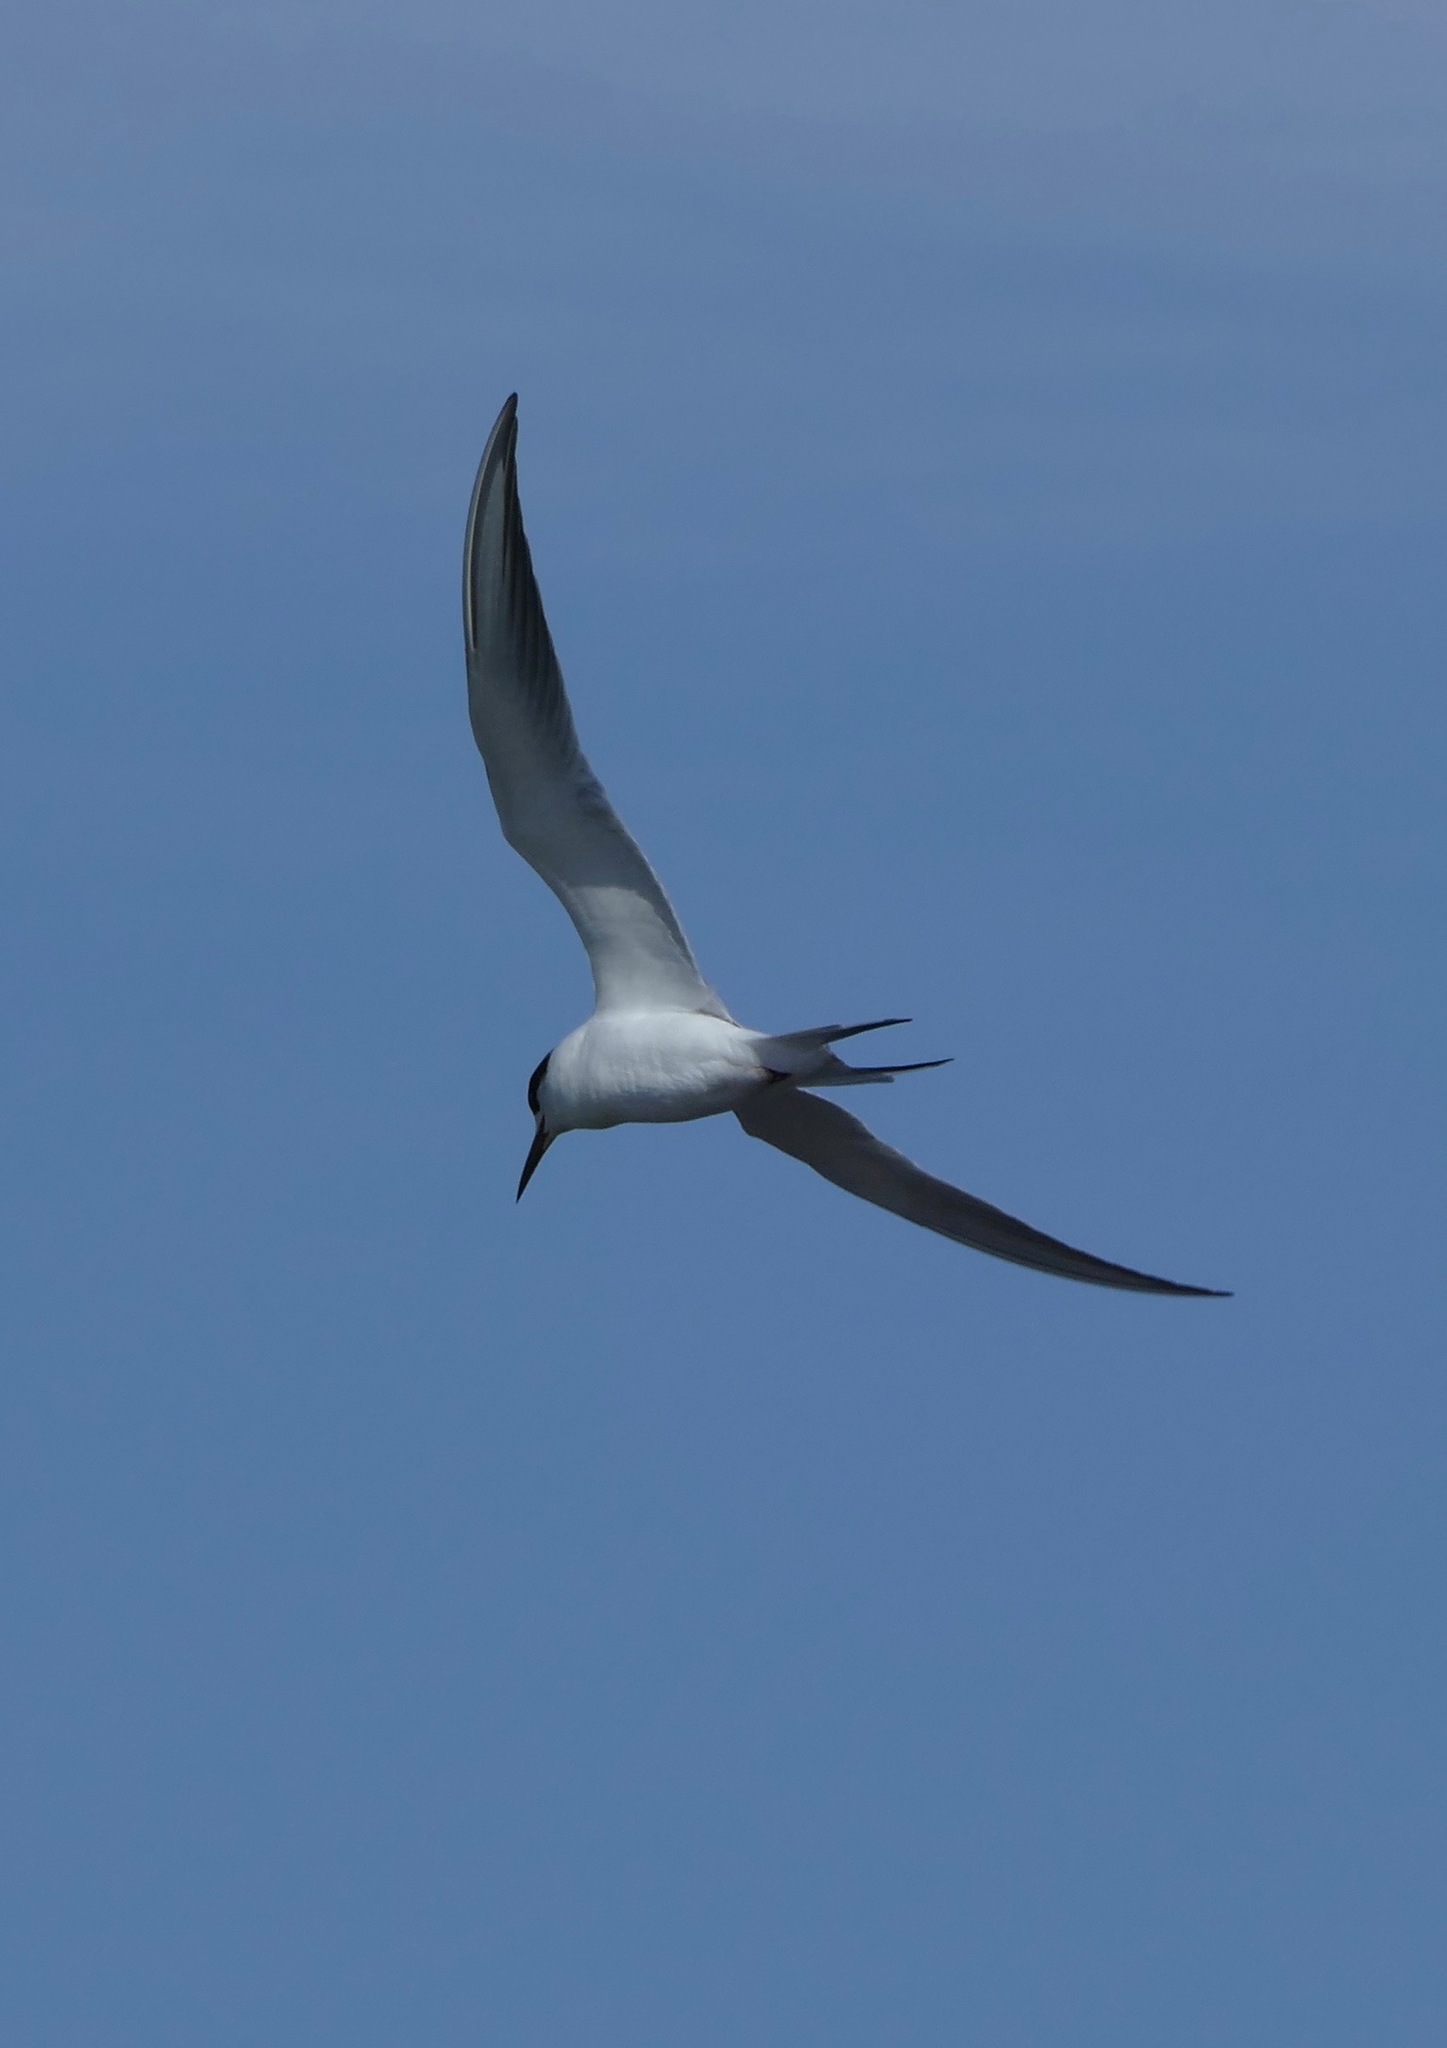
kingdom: Animalia
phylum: Chordata
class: Aves
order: Charadriiformes
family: Laridae
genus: Sterna
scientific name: Sterna forsteri
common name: Forster's tern
